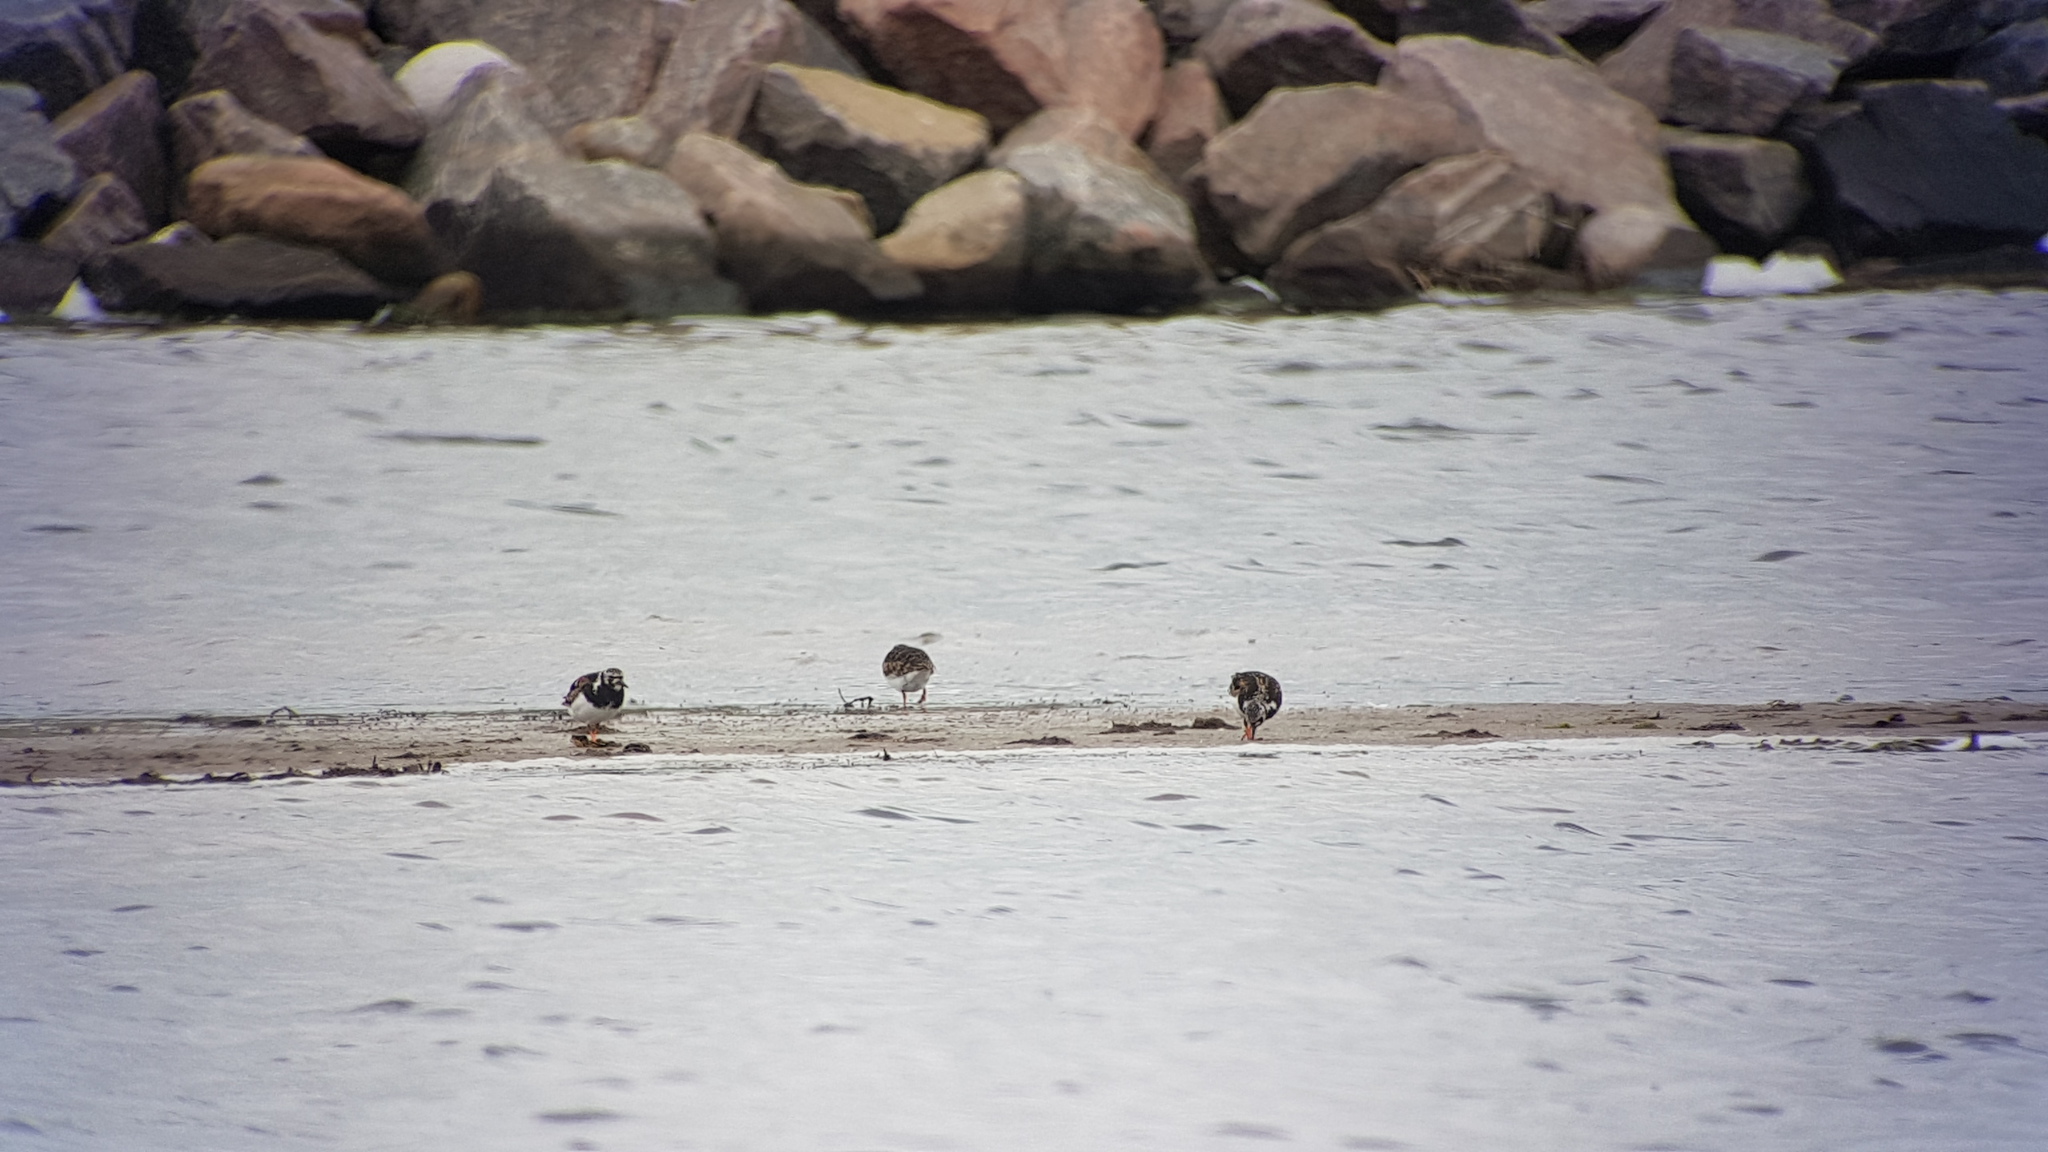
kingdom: Animalia
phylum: Chordata
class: Aves
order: Charadriiformes
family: Scolopacidae
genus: Arenaria
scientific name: Arenaria interpres
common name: Ruddy turnstone
